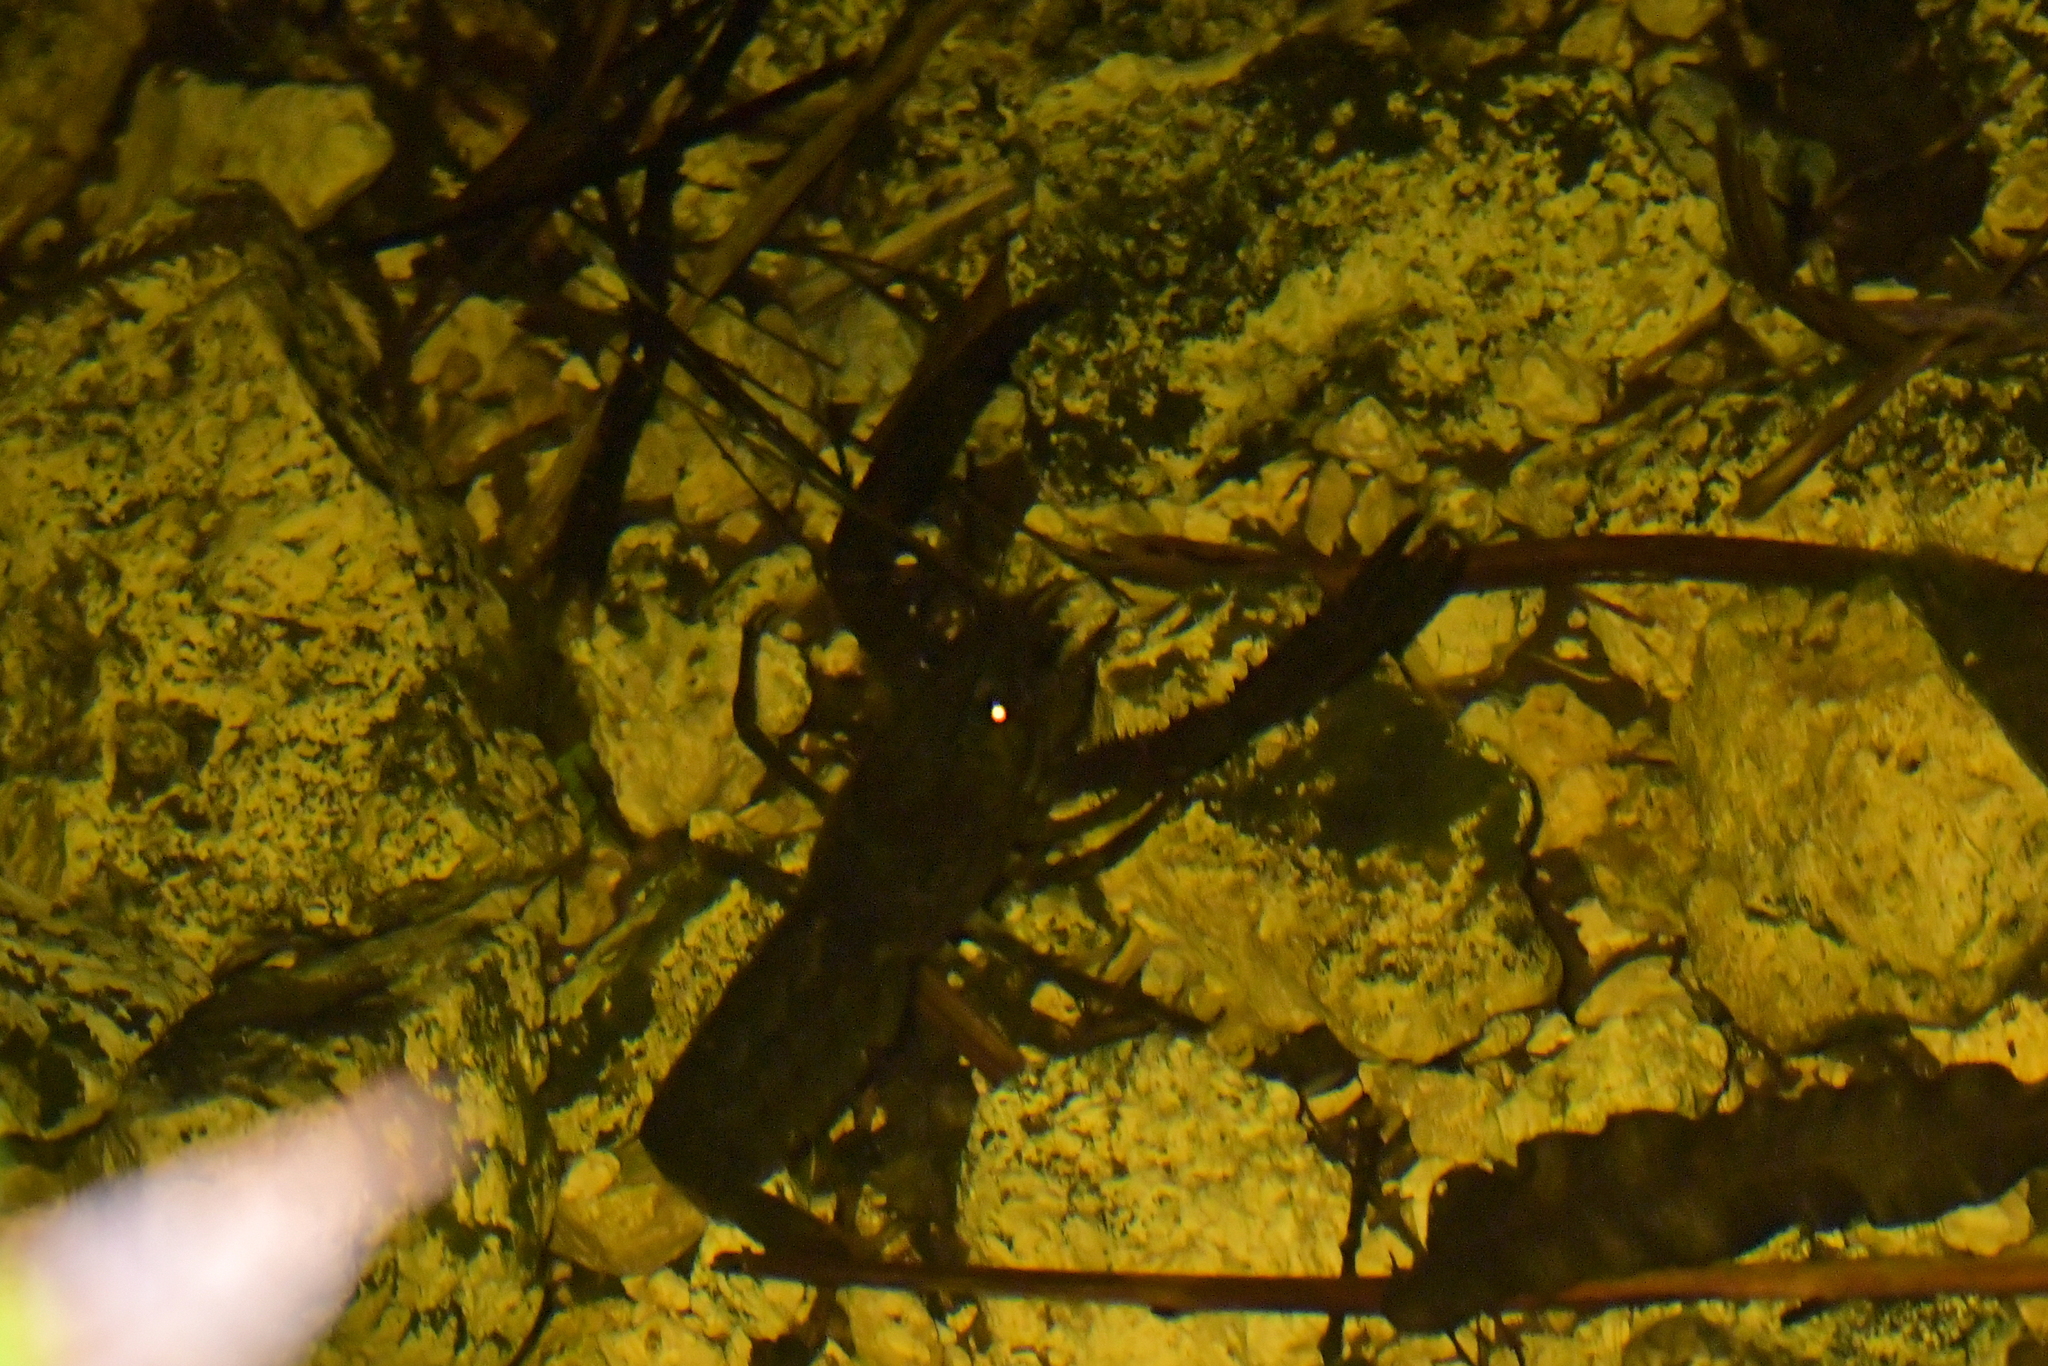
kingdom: Animalia
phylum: Arthropoda
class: Malacostraca
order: Decapoda
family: Parastacidae
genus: Paranephrops
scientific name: Paranephrops planifrons
